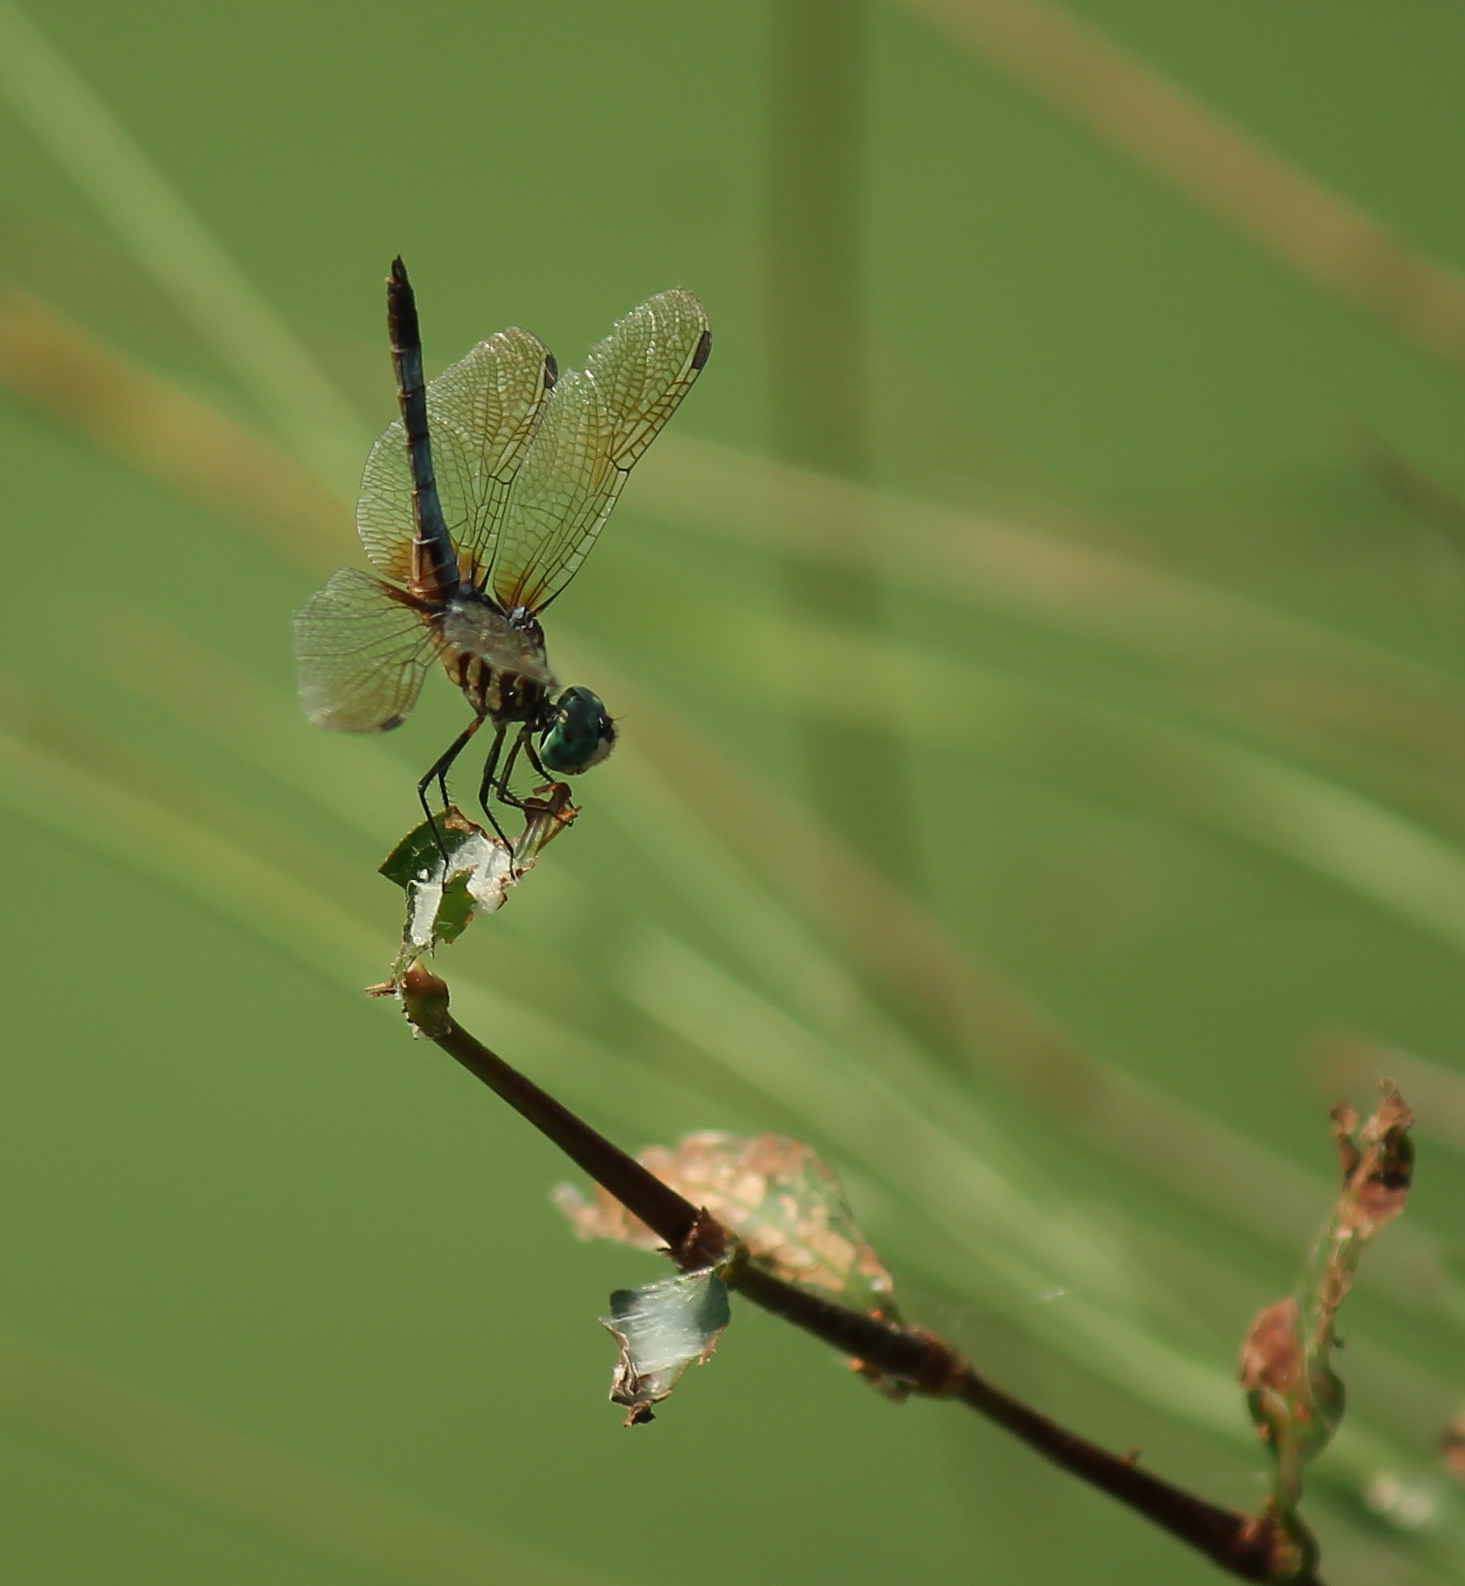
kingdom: Animalia
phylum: Arthropoda
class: Insecta
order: Odonata
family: Libellulidae
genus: Pachydiplax
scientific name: Pachydiplax longipennis
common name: Blue dasher
